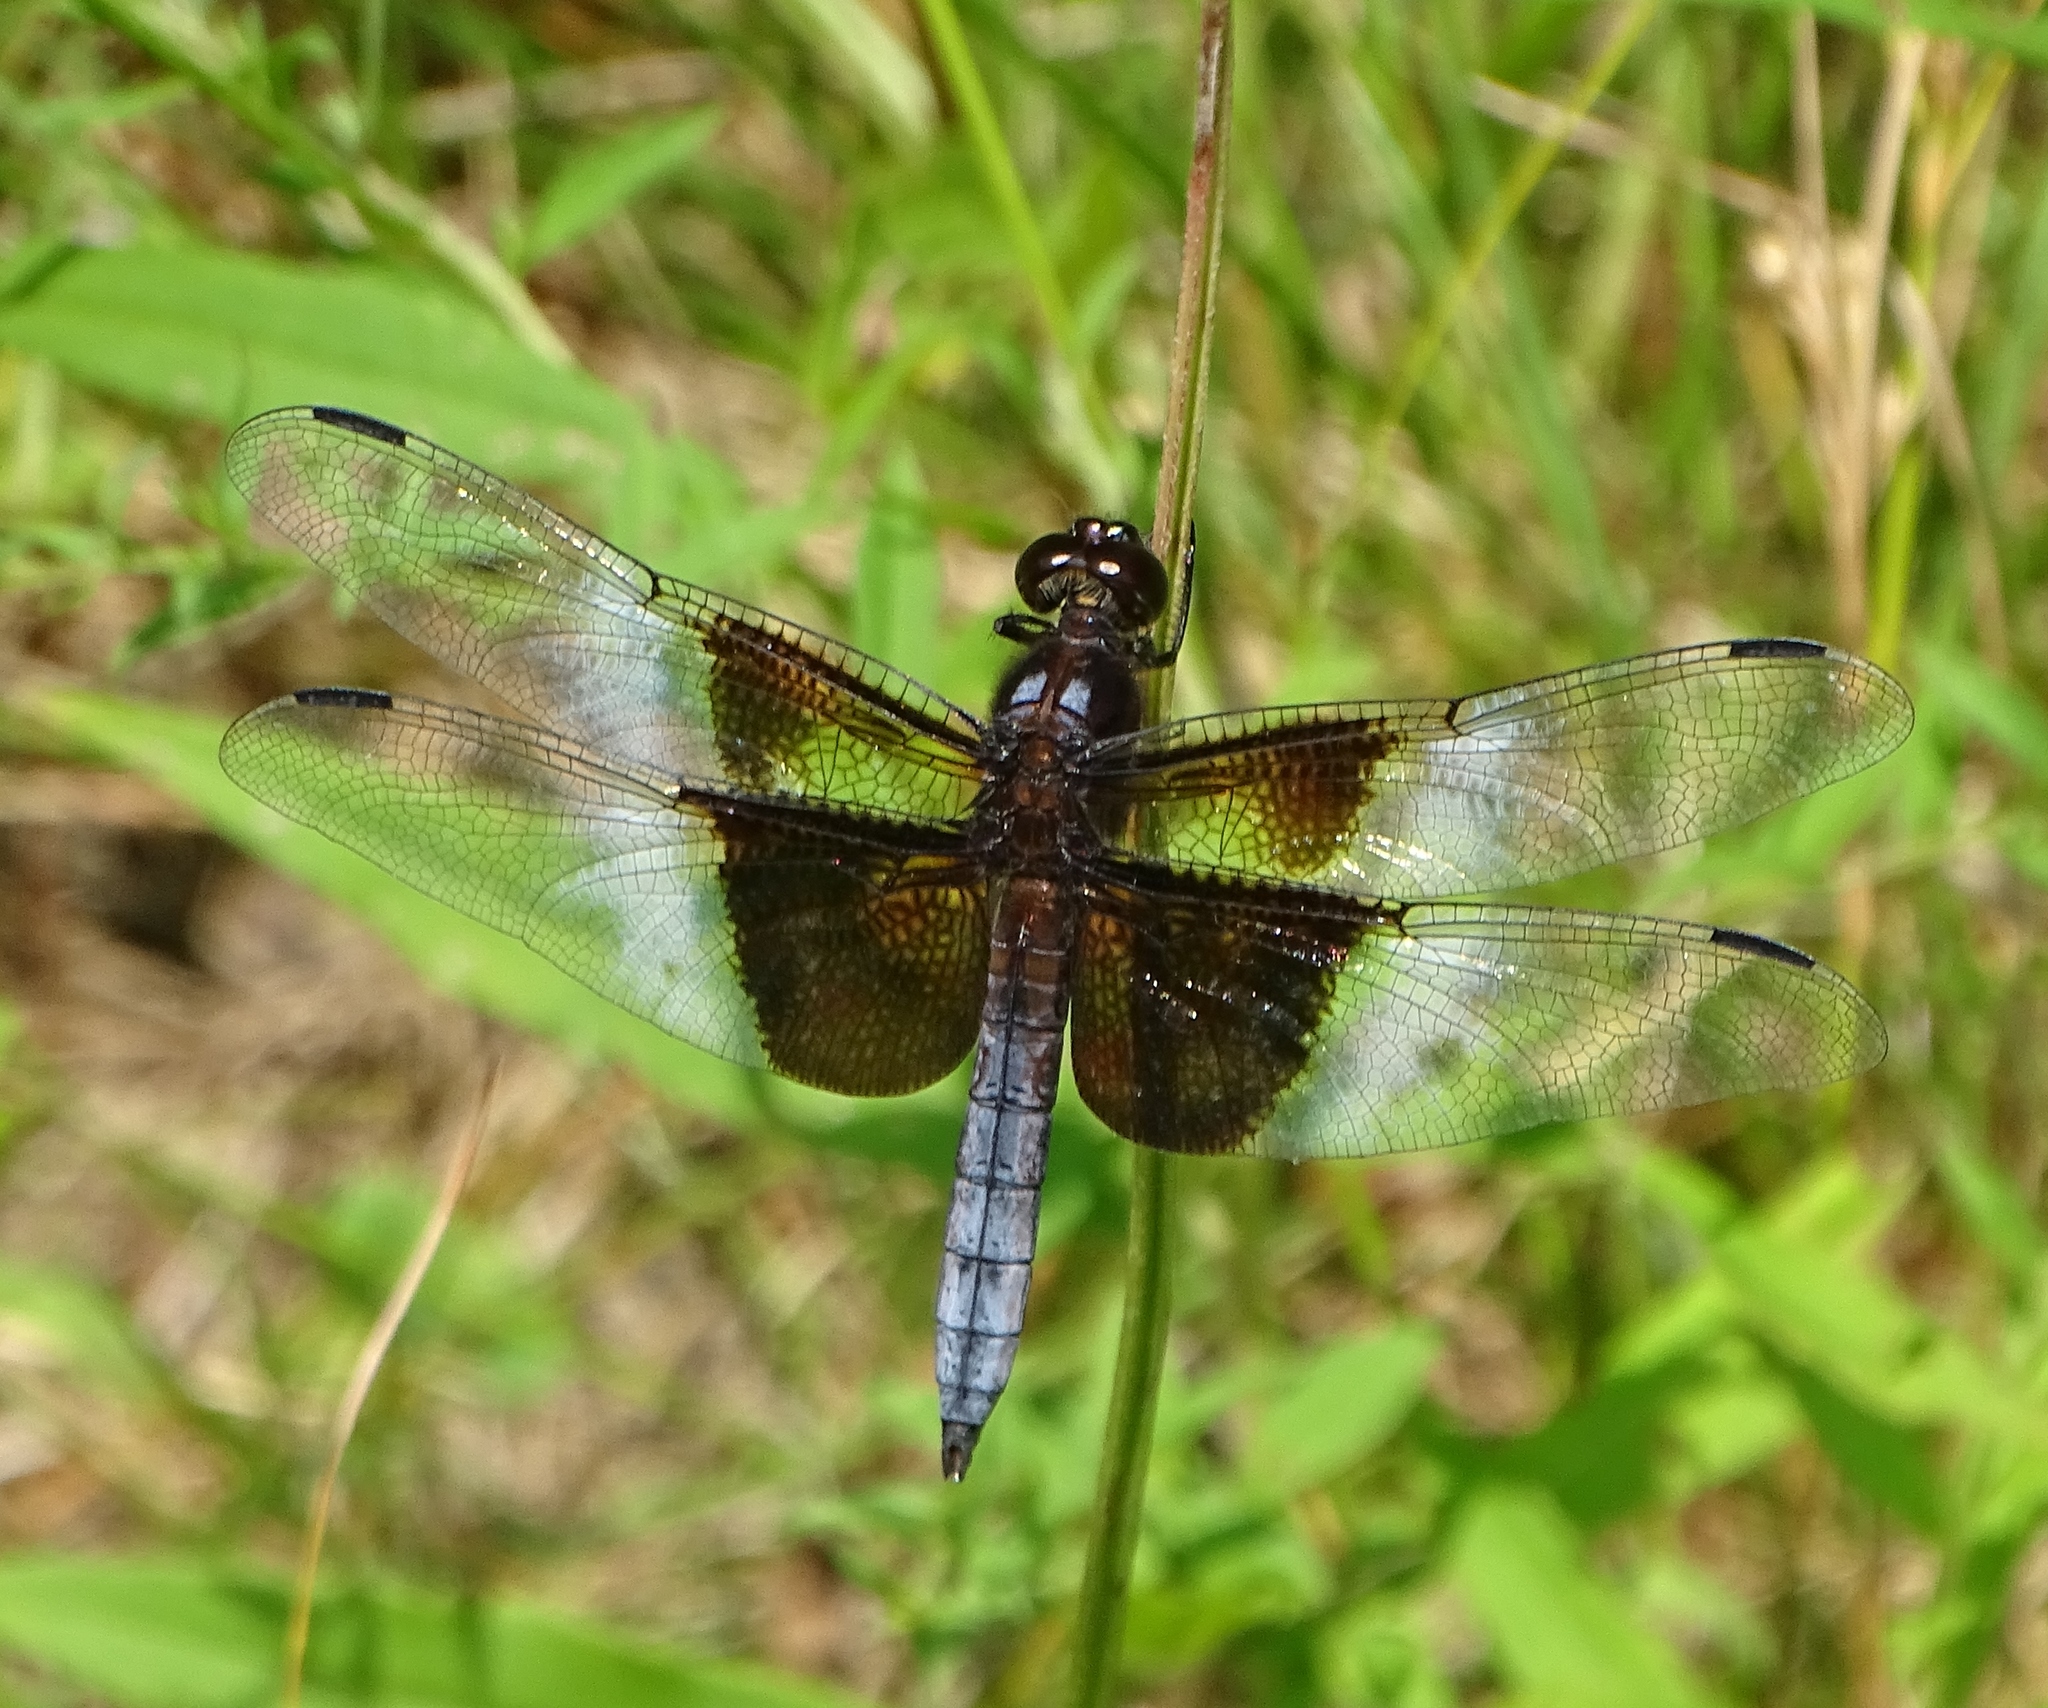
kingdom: Animalia
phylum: Arthropoda
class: Insecta
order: Odonata
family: Libellulidae
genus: Libellula
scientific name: Libellula luctuosa
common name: Widow skimmer
